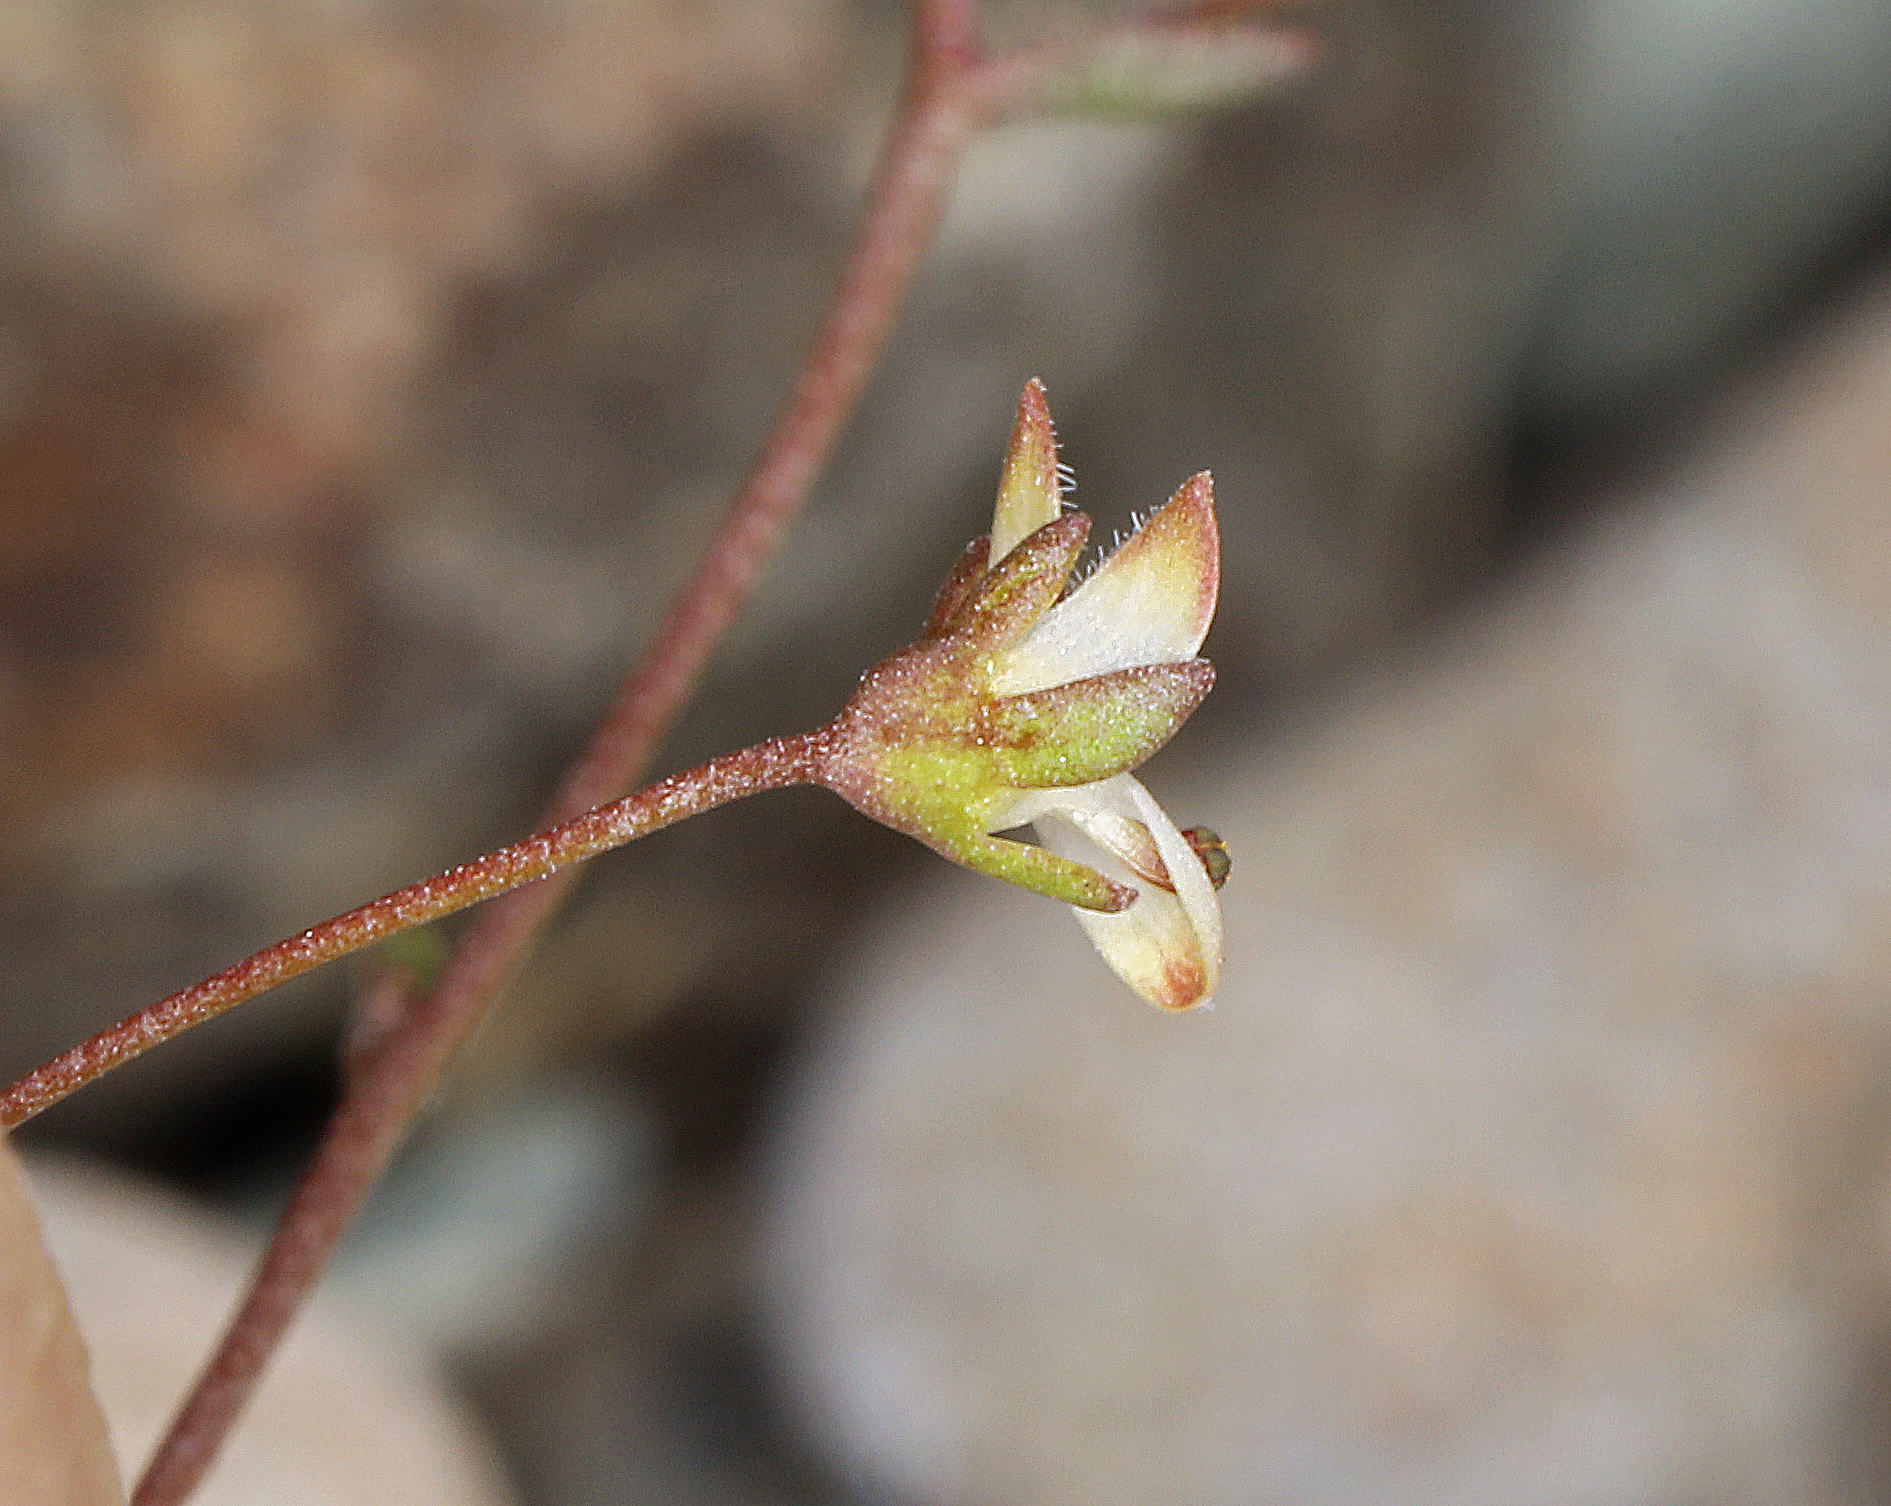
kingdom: Plantae
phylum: Tracheophyta
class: Magnoliopsida
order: Asterales
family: Campanulaceae
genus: Nemacladus
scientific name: Nemacladus morefieldii
